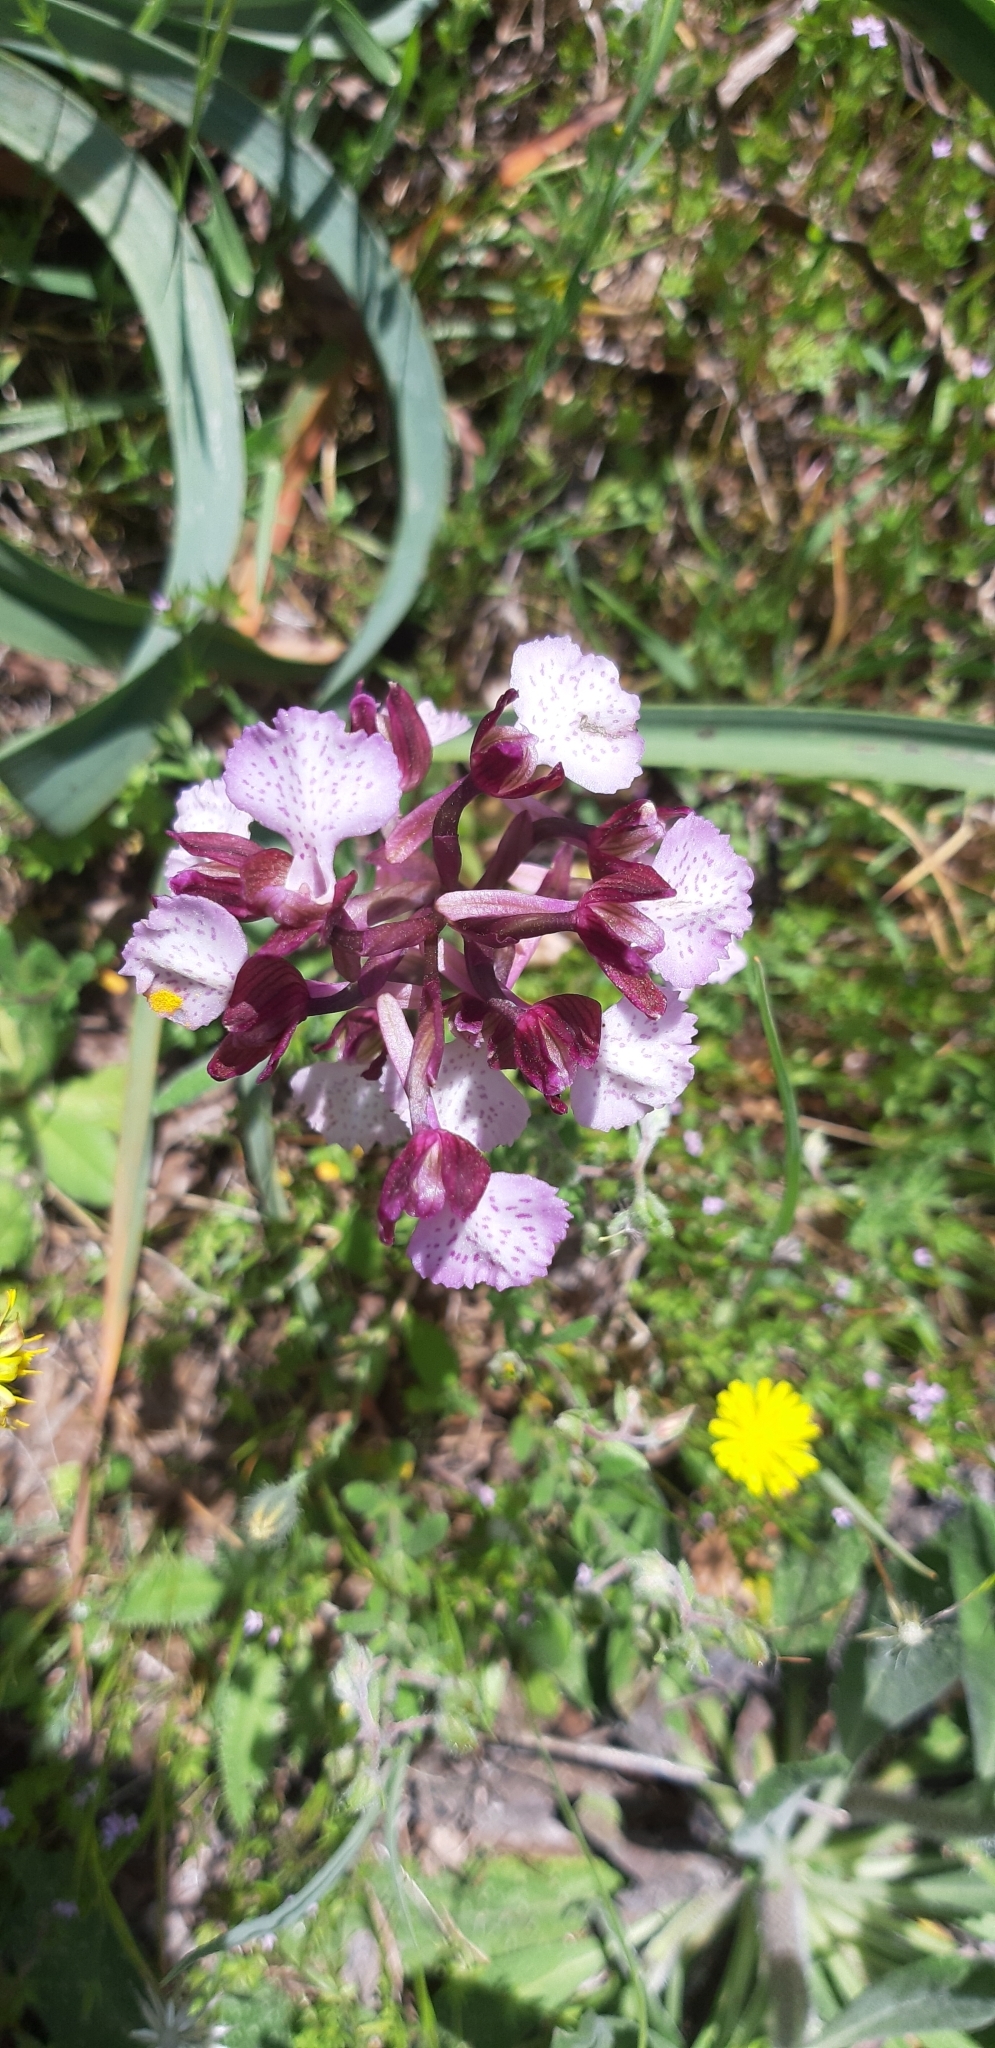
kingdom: Plantae
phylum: Tracheophyta
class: Liliopsida
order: Asparagales
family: Orchidaceae
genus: Anacamptis
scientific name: Anacamptis gennarii
